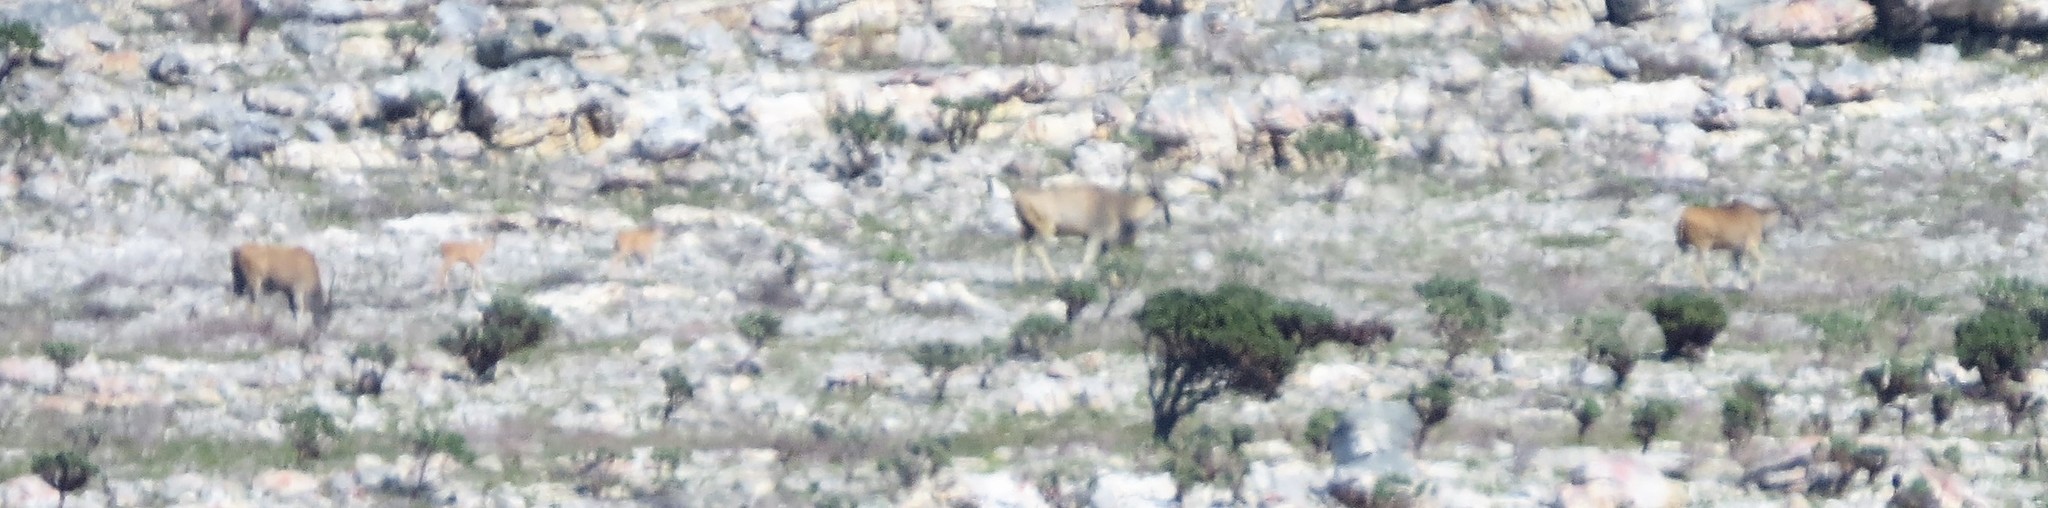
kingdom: Animalia
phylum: Chordata
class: Mammalia
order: Artiodactyla
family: Bovidae
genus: Taurotragus
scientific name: Taurotragus oryx
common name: Common eland
